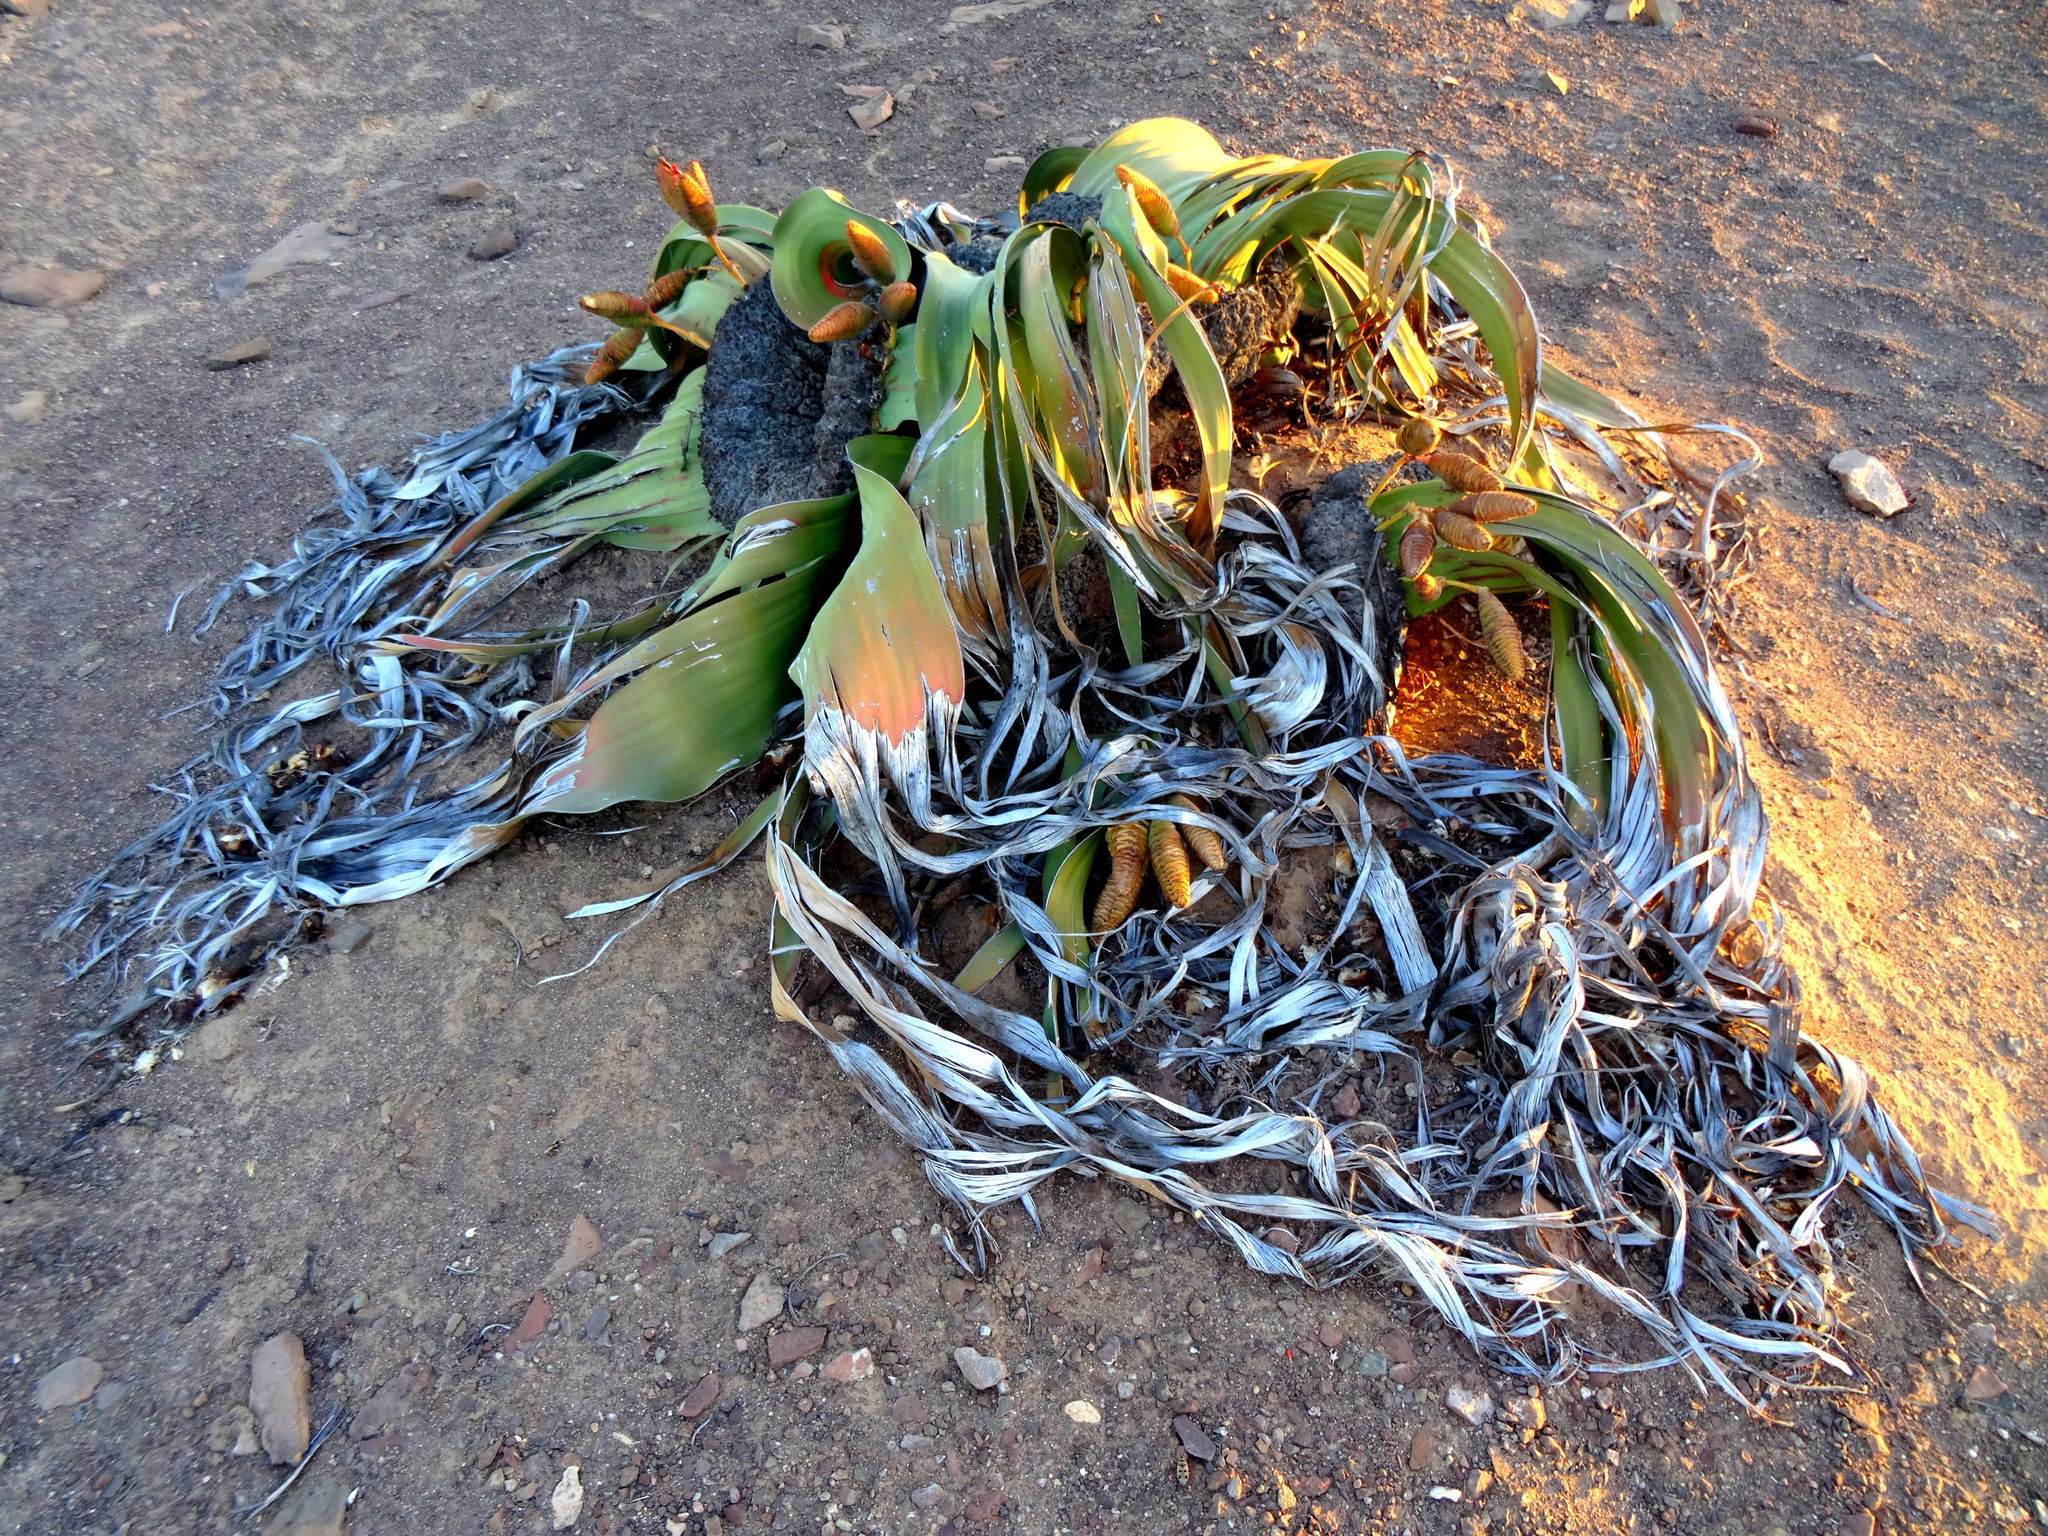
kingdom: Plantae
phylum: Tracheophyta
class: Gnetopsida
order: Welwitschiales
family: Welwitschiaceae
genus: Welwitschia
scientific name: Welwitschia mirabilis
